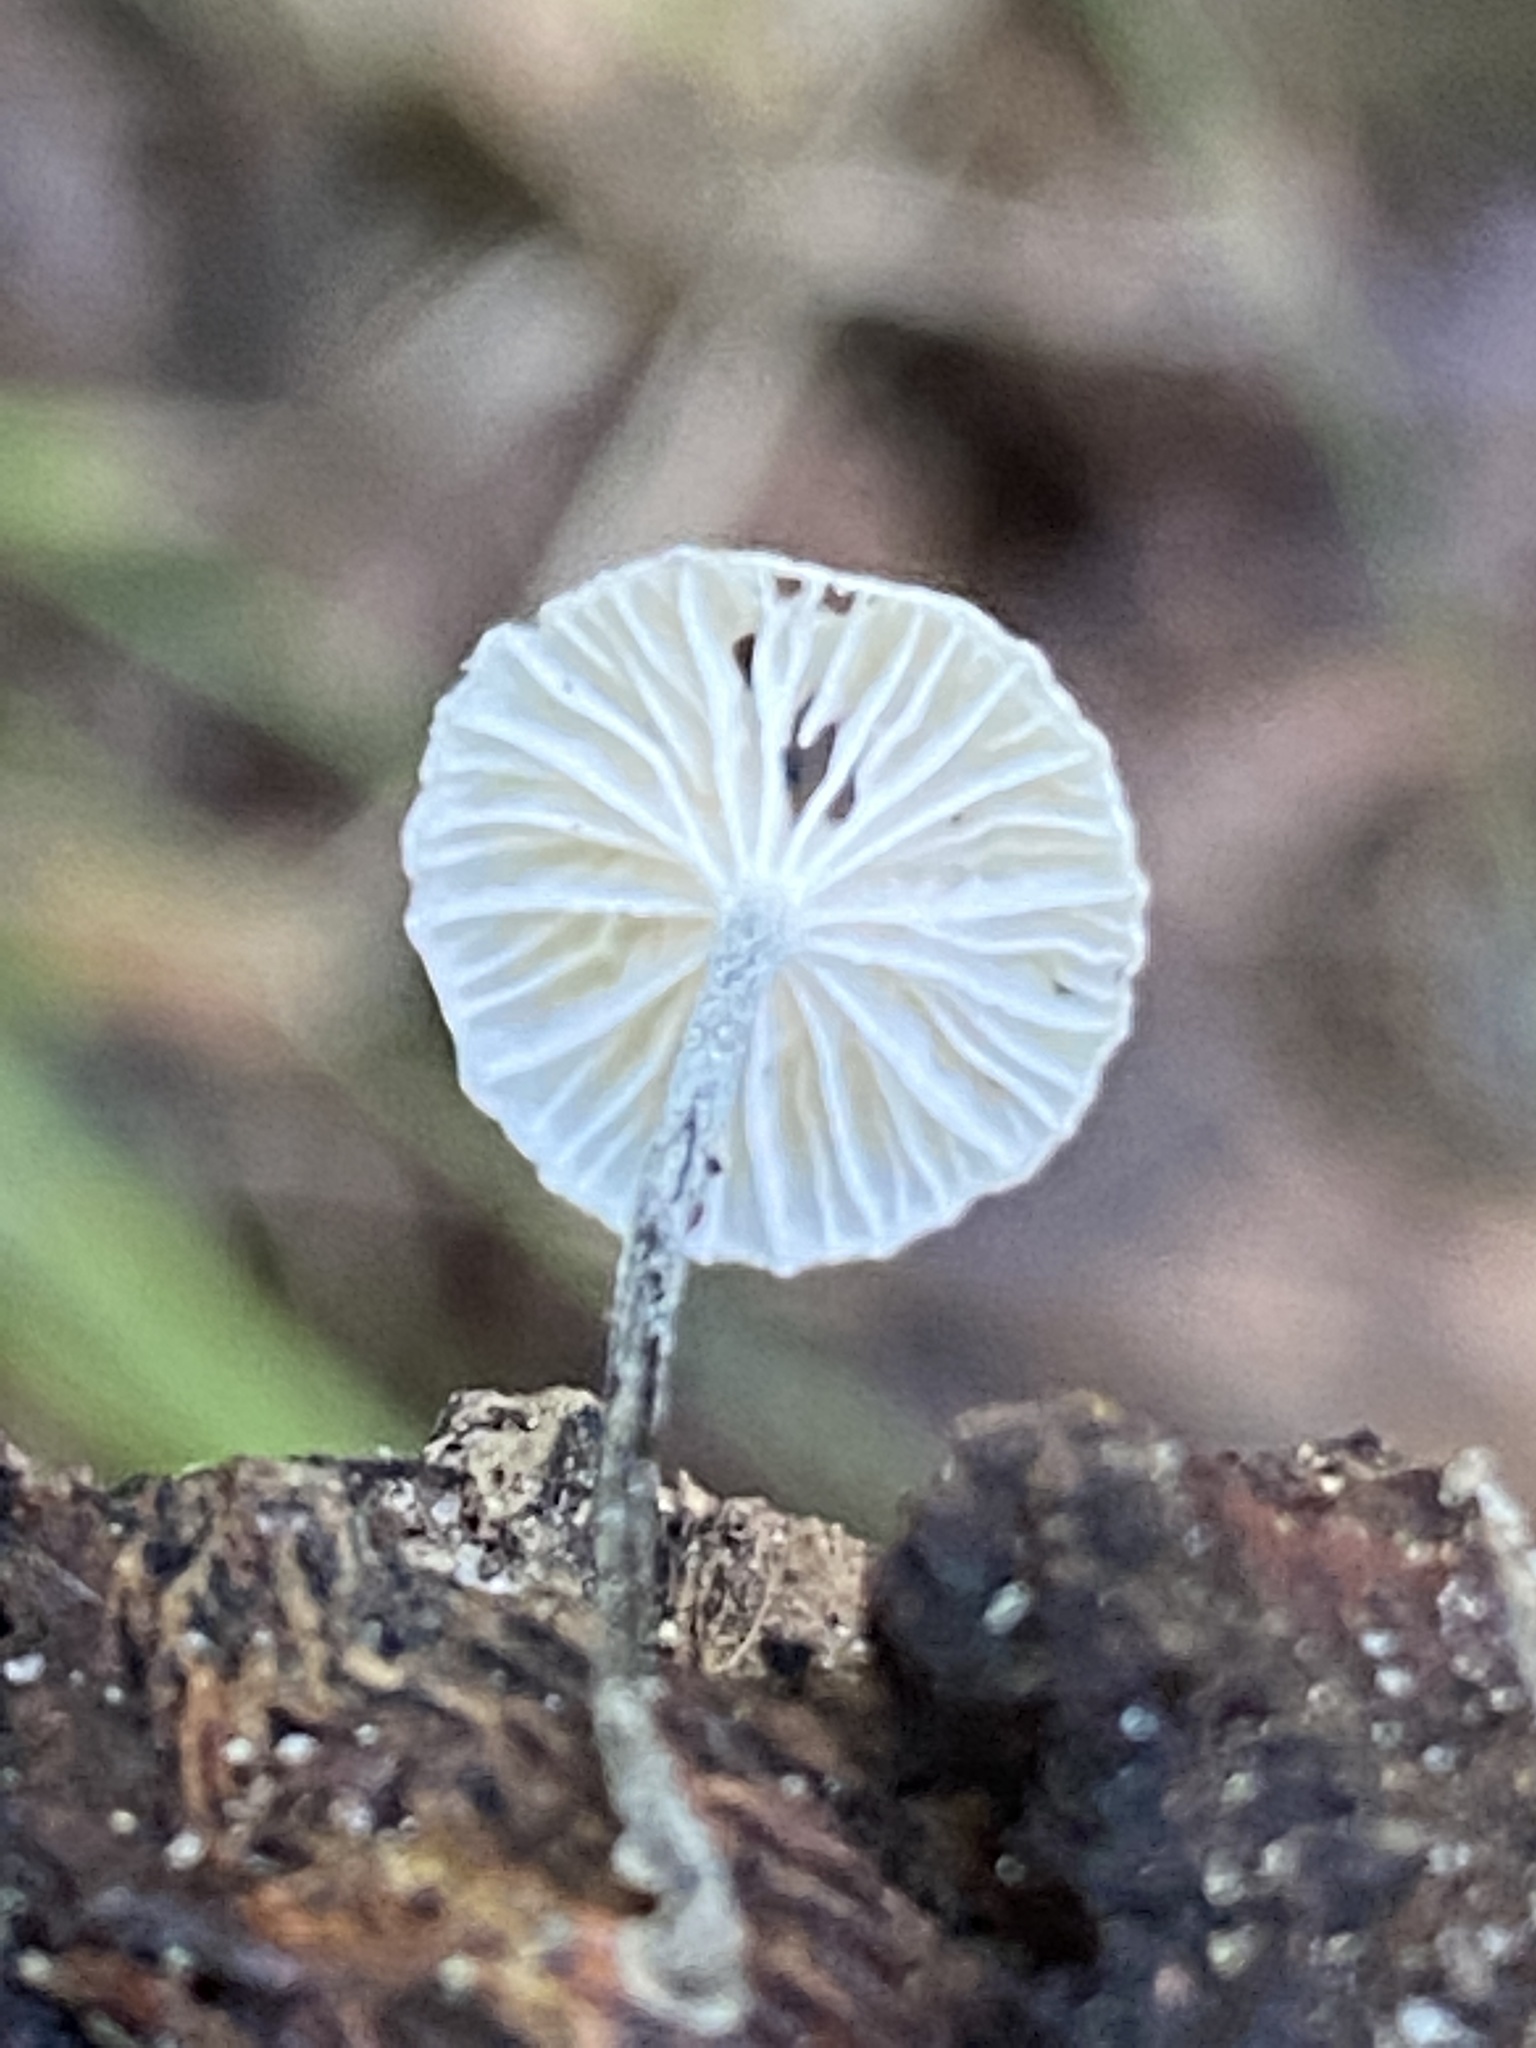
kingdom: Fungi
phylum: Basidiomycota
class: Agaricomycetes
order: Agaricales
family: Marasmiaceae
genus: Tetrapyrgos
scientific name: Tetrapyrgos nigripes
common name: Black-stalked marasmius
